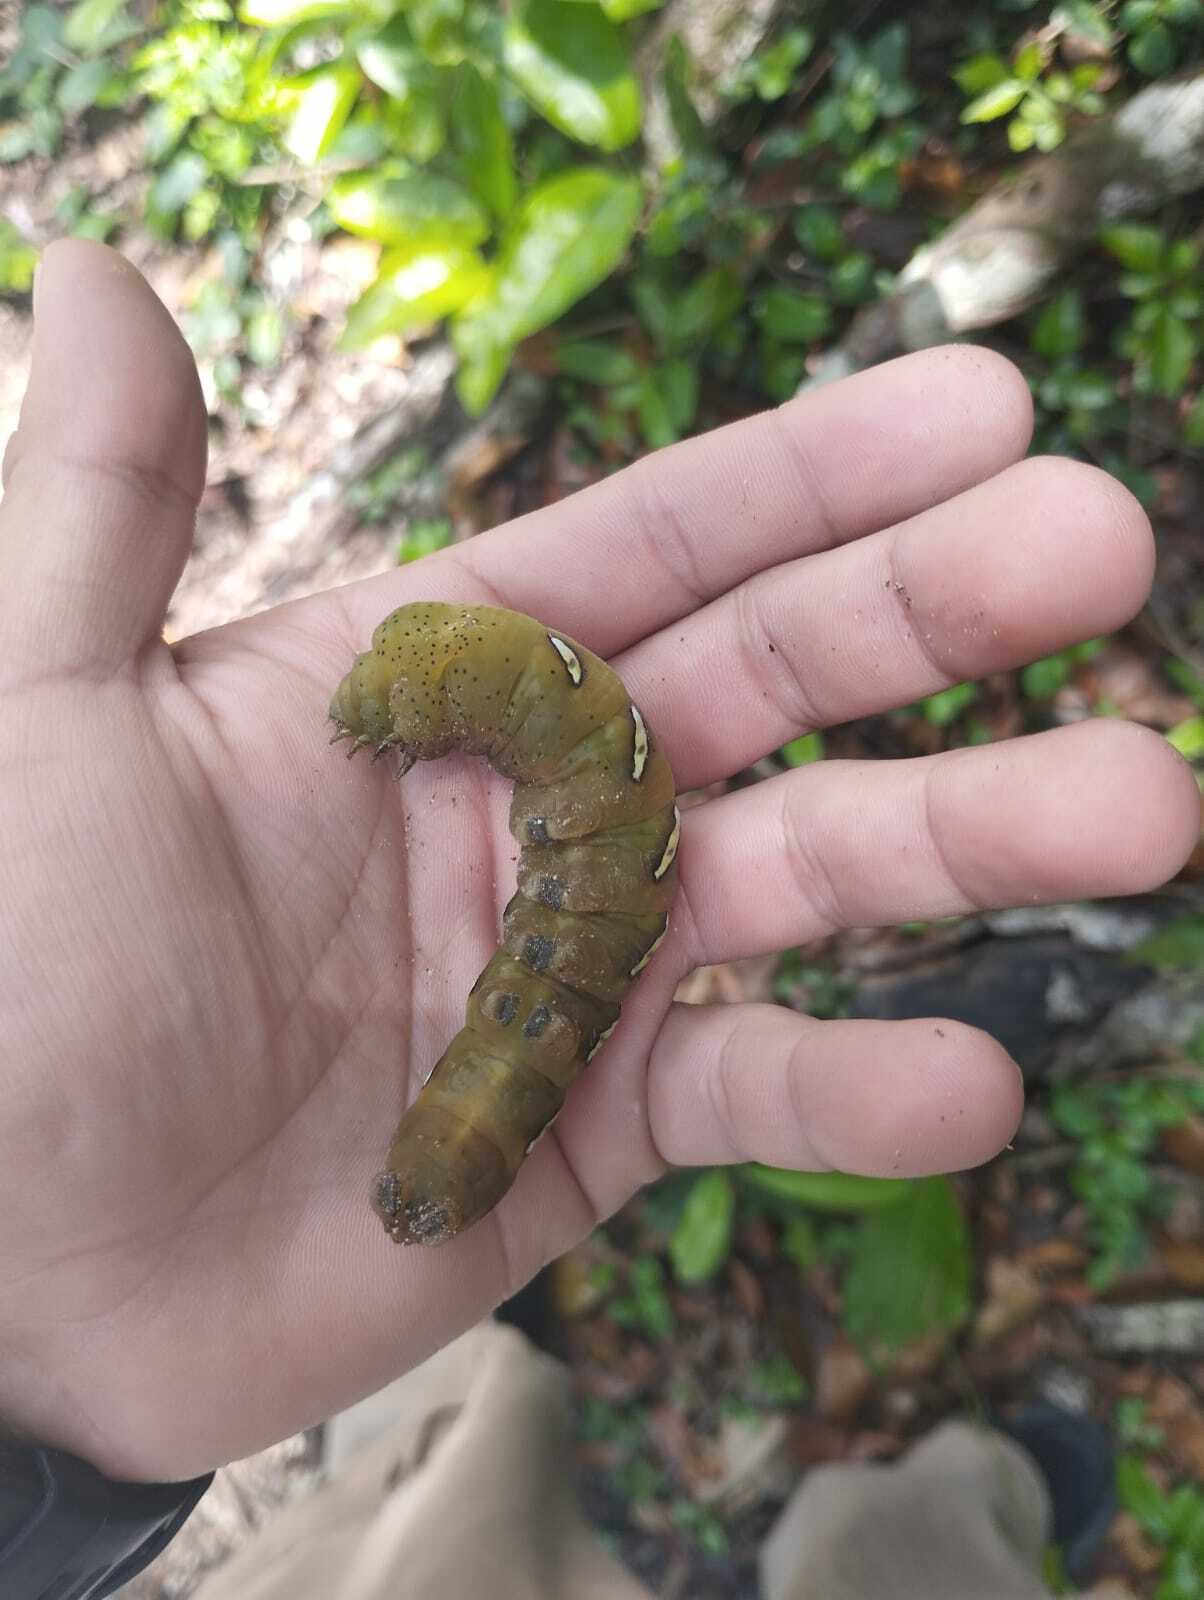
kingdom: Animalia
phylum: Arthropoda
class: Insecta
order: Lepidoptera
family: Sphingidae
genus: Eumorpha
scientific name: Eumorpha satellitia
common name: Satellite sphinx
